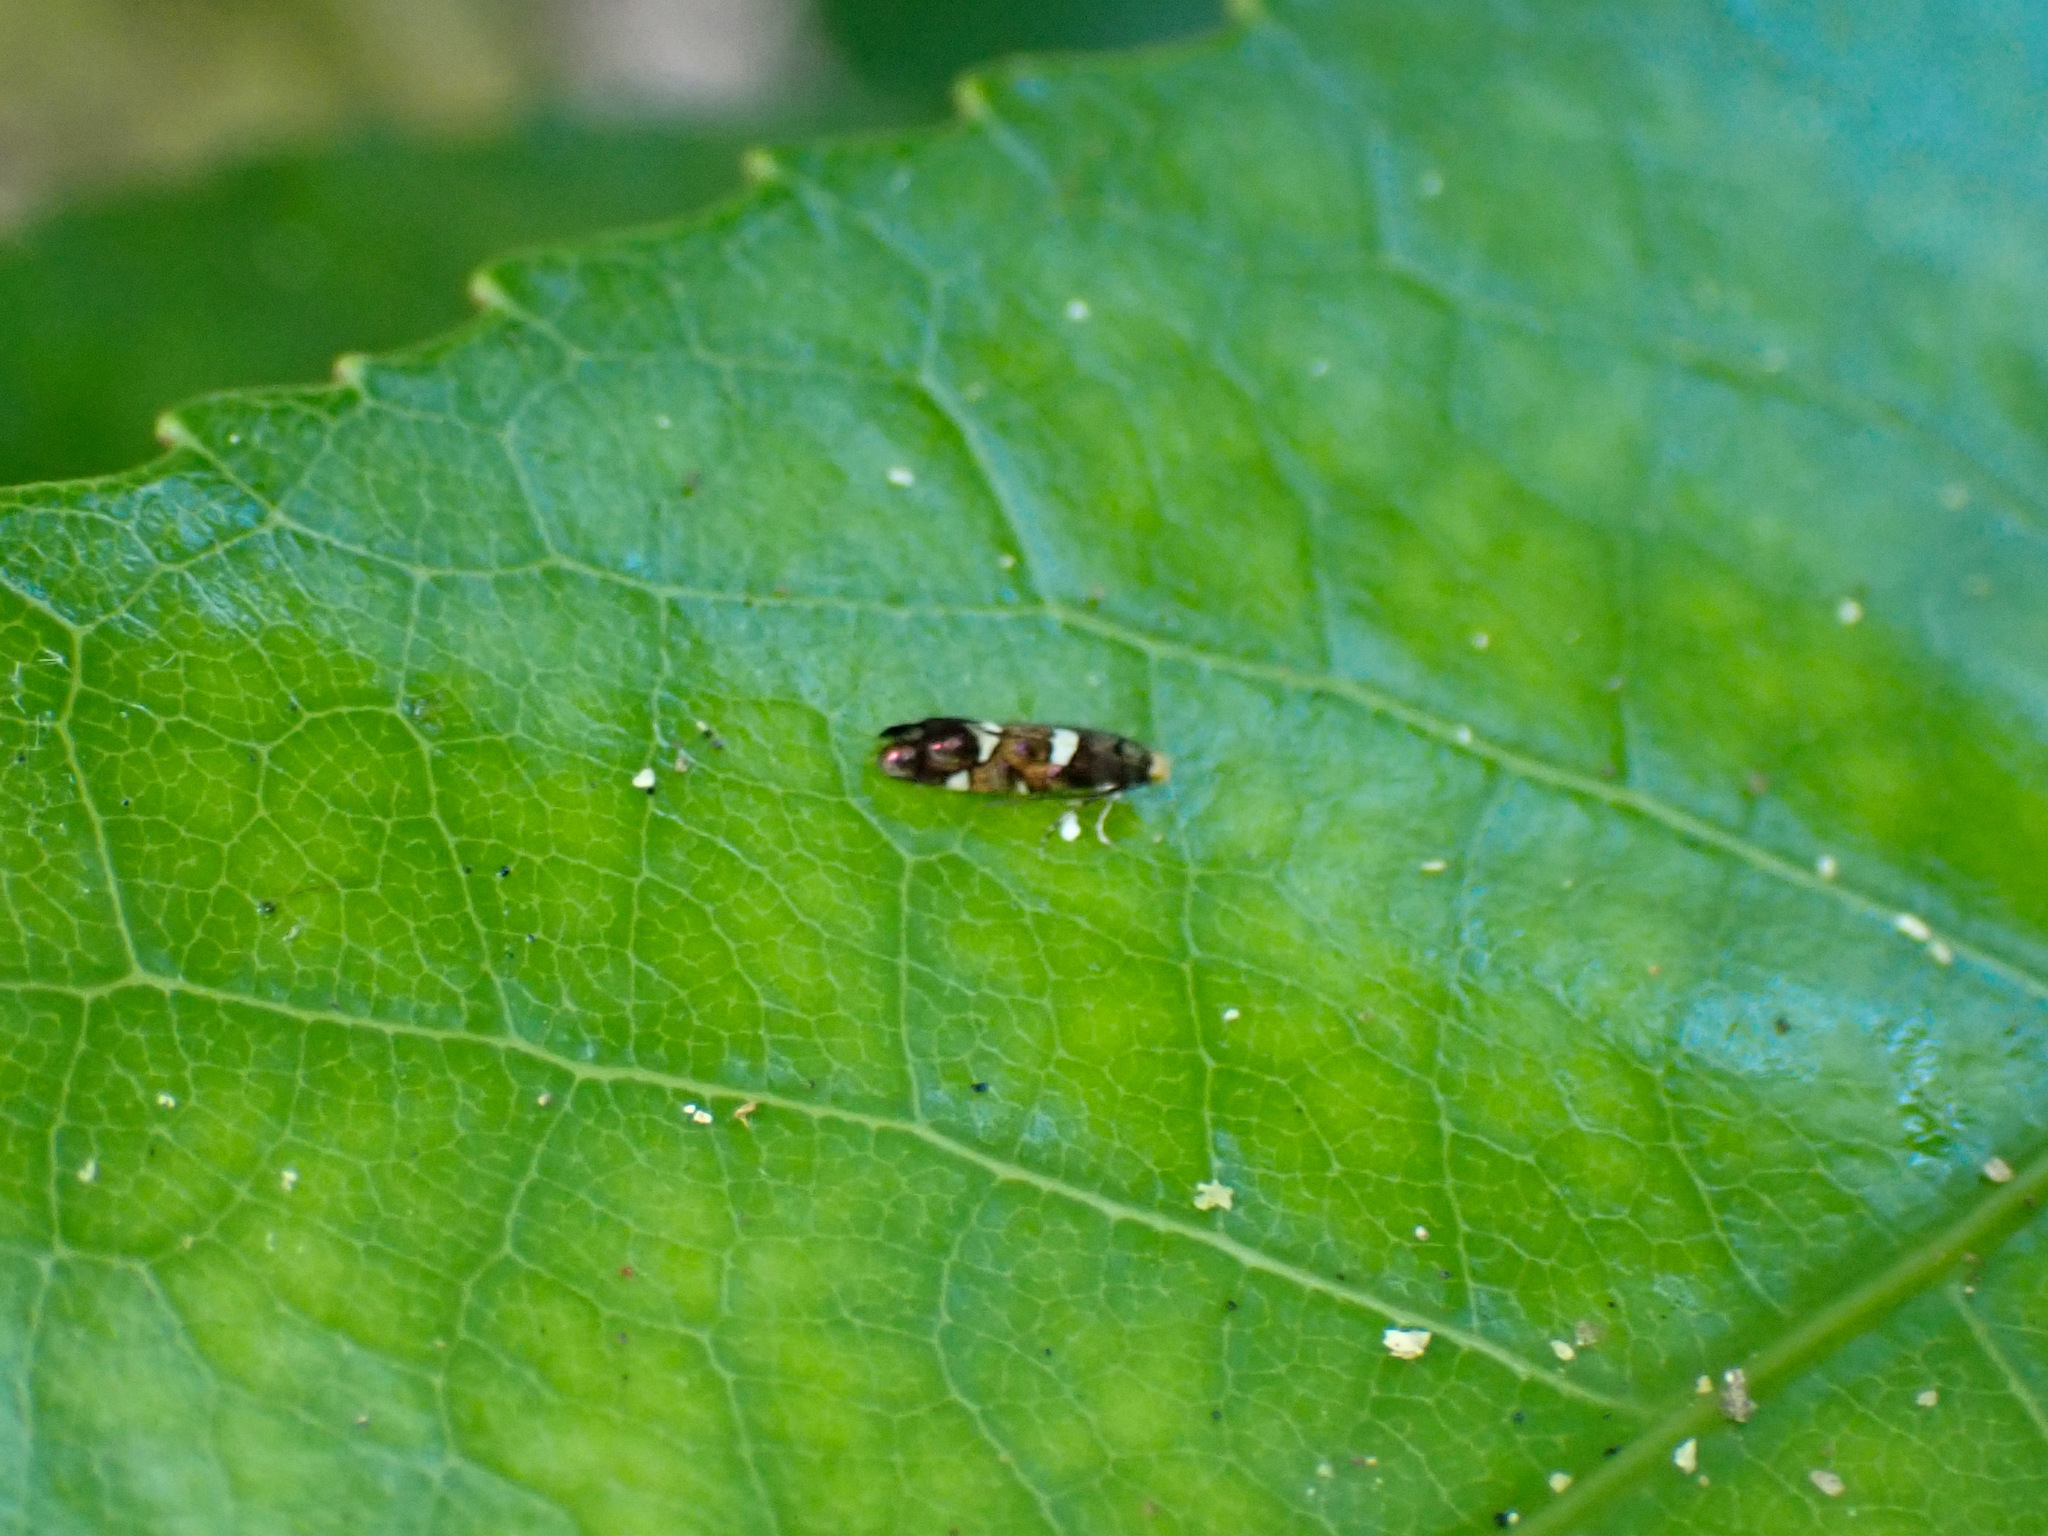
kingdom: Animalia
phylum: Arthropoda
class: Insecta
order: Lepidoptera
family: Cecidosidae
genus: Xanadoses
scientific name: Xanadoses nielseni
